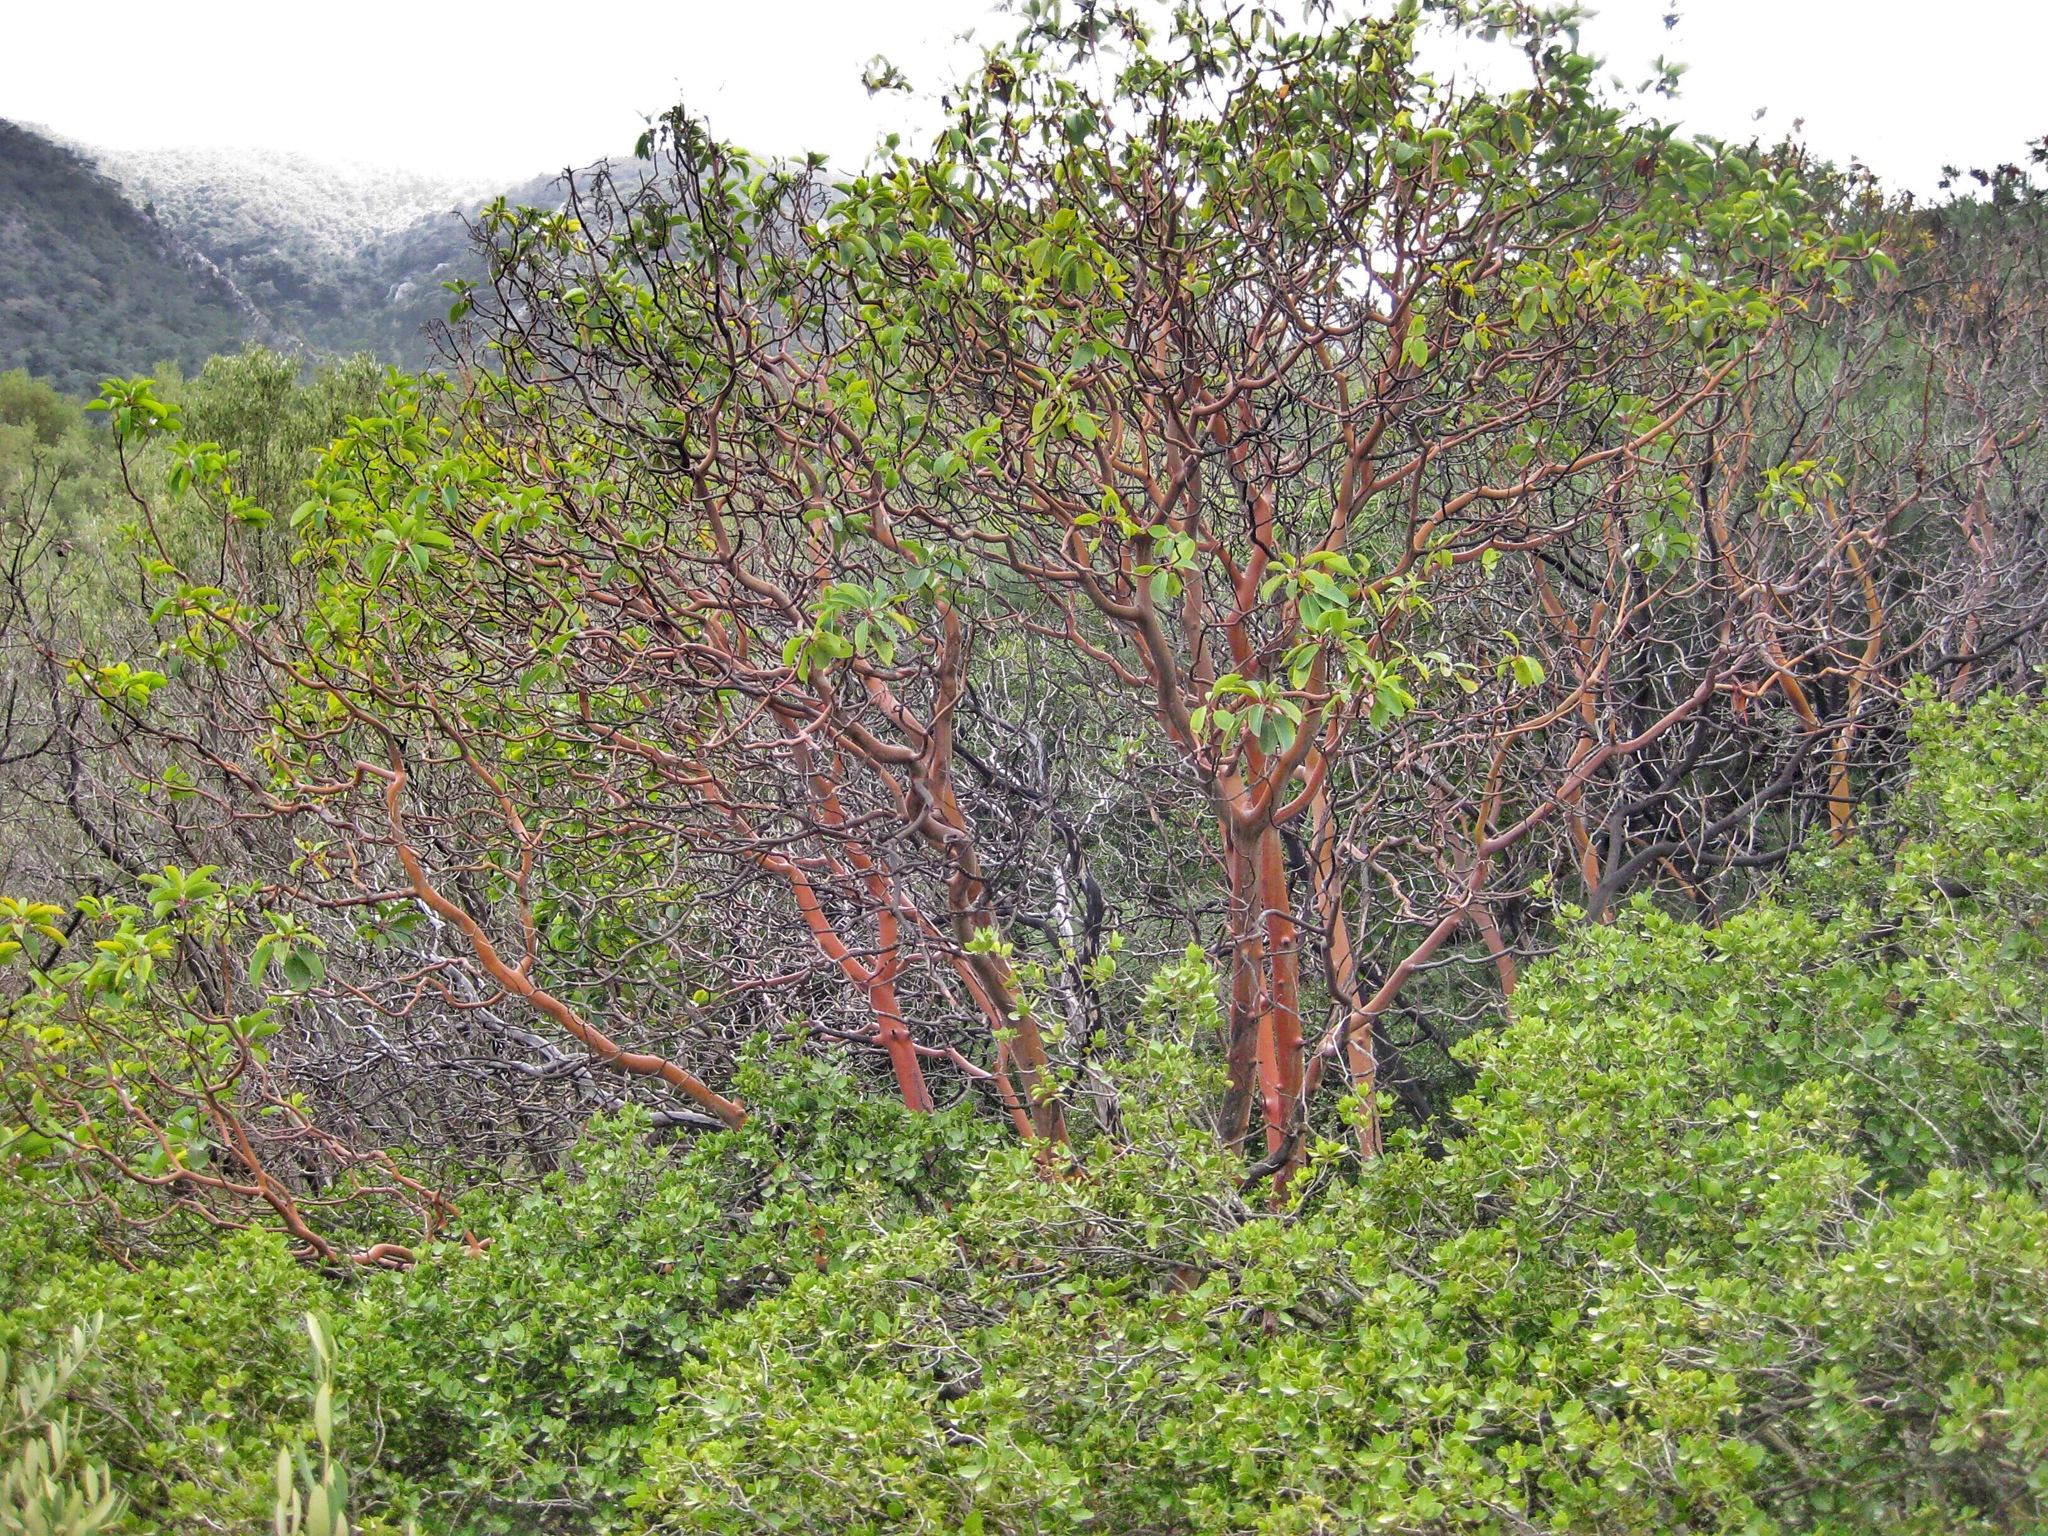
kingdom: Plantae
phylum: Tracheophyta
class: Magnoliopsida
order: Ericales
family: Ericaceae
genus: Arbutus
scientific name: Arbutus andrachne
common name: Greek strawberry tree
